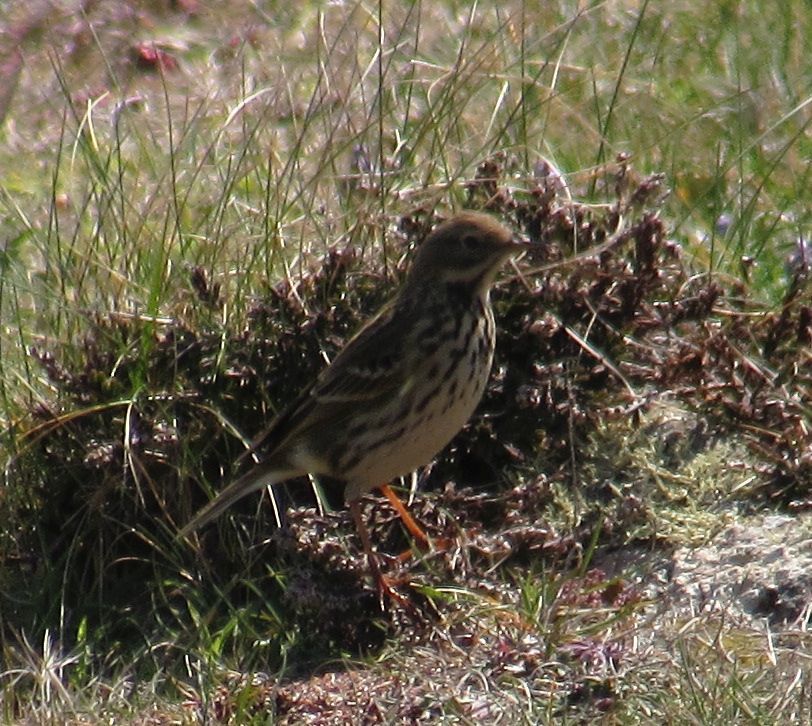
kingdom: Animalia
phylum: Chordata
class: Aves
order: Passeriformes
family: Motacillidae
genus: Anthus
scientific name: Anthus pratensis
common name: Meadow pipit
